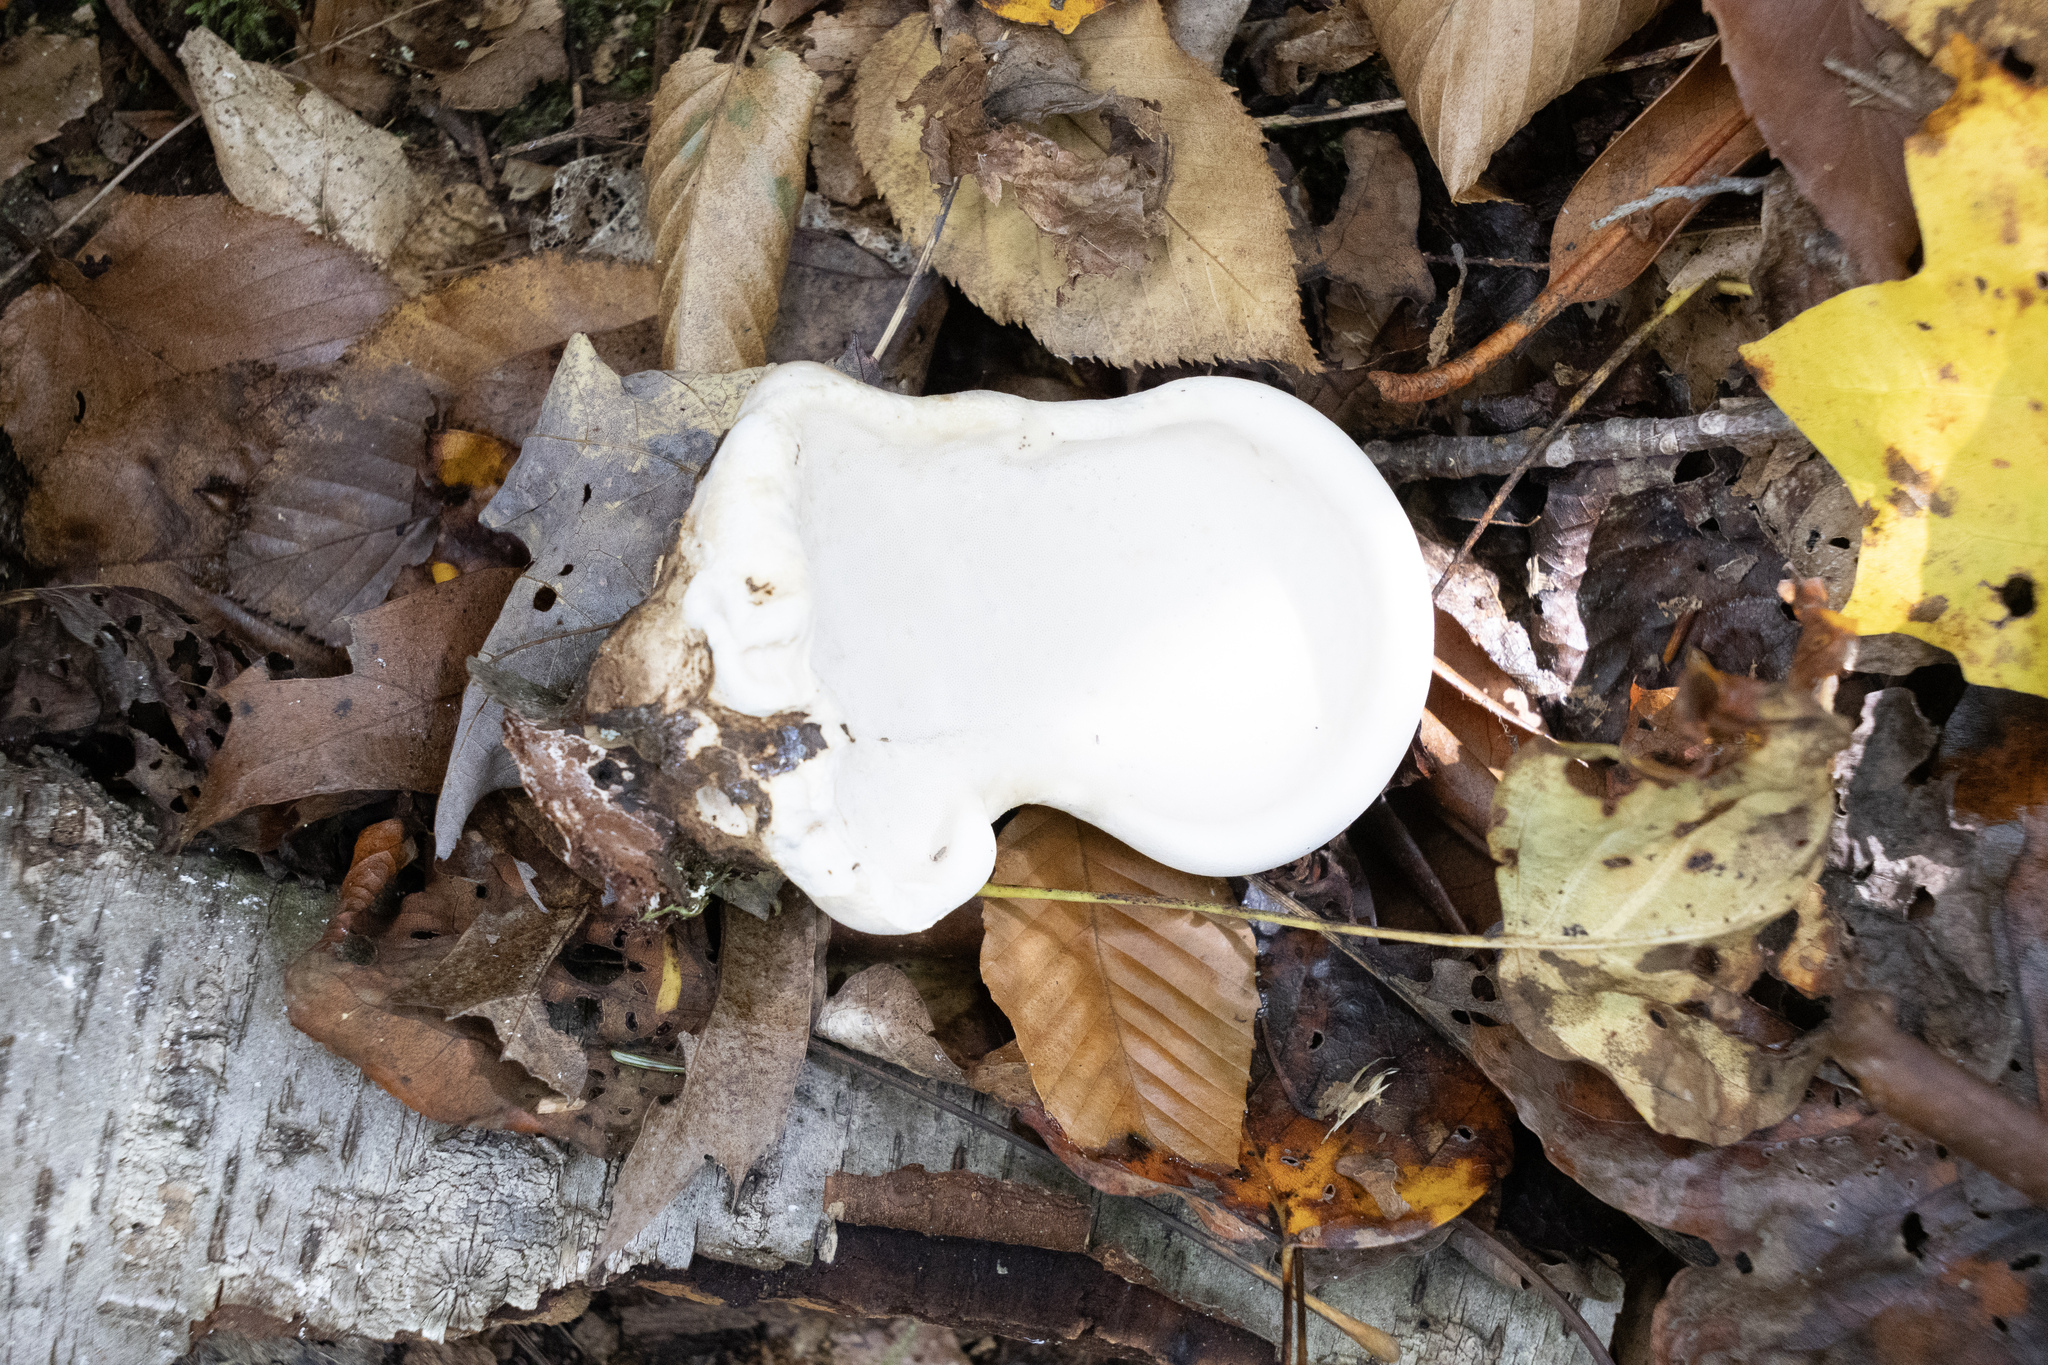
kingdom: Fungi
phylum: Basidiomycota
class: Agaricomycetes
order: Polyporales
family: Fomitopsidaceae
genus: Fomitopsis
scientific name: Fomitopsis betulina
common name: Birch polypore
